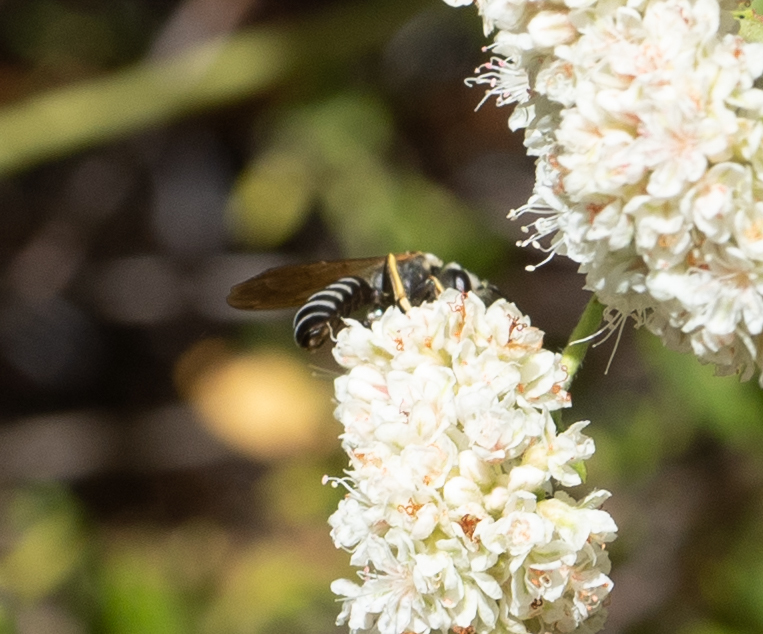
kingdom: Animalia
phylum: Arthropoda
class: Insecta
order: Hymenoptera
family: Halictidae
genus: Halictus
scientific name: Halictus farinosus
